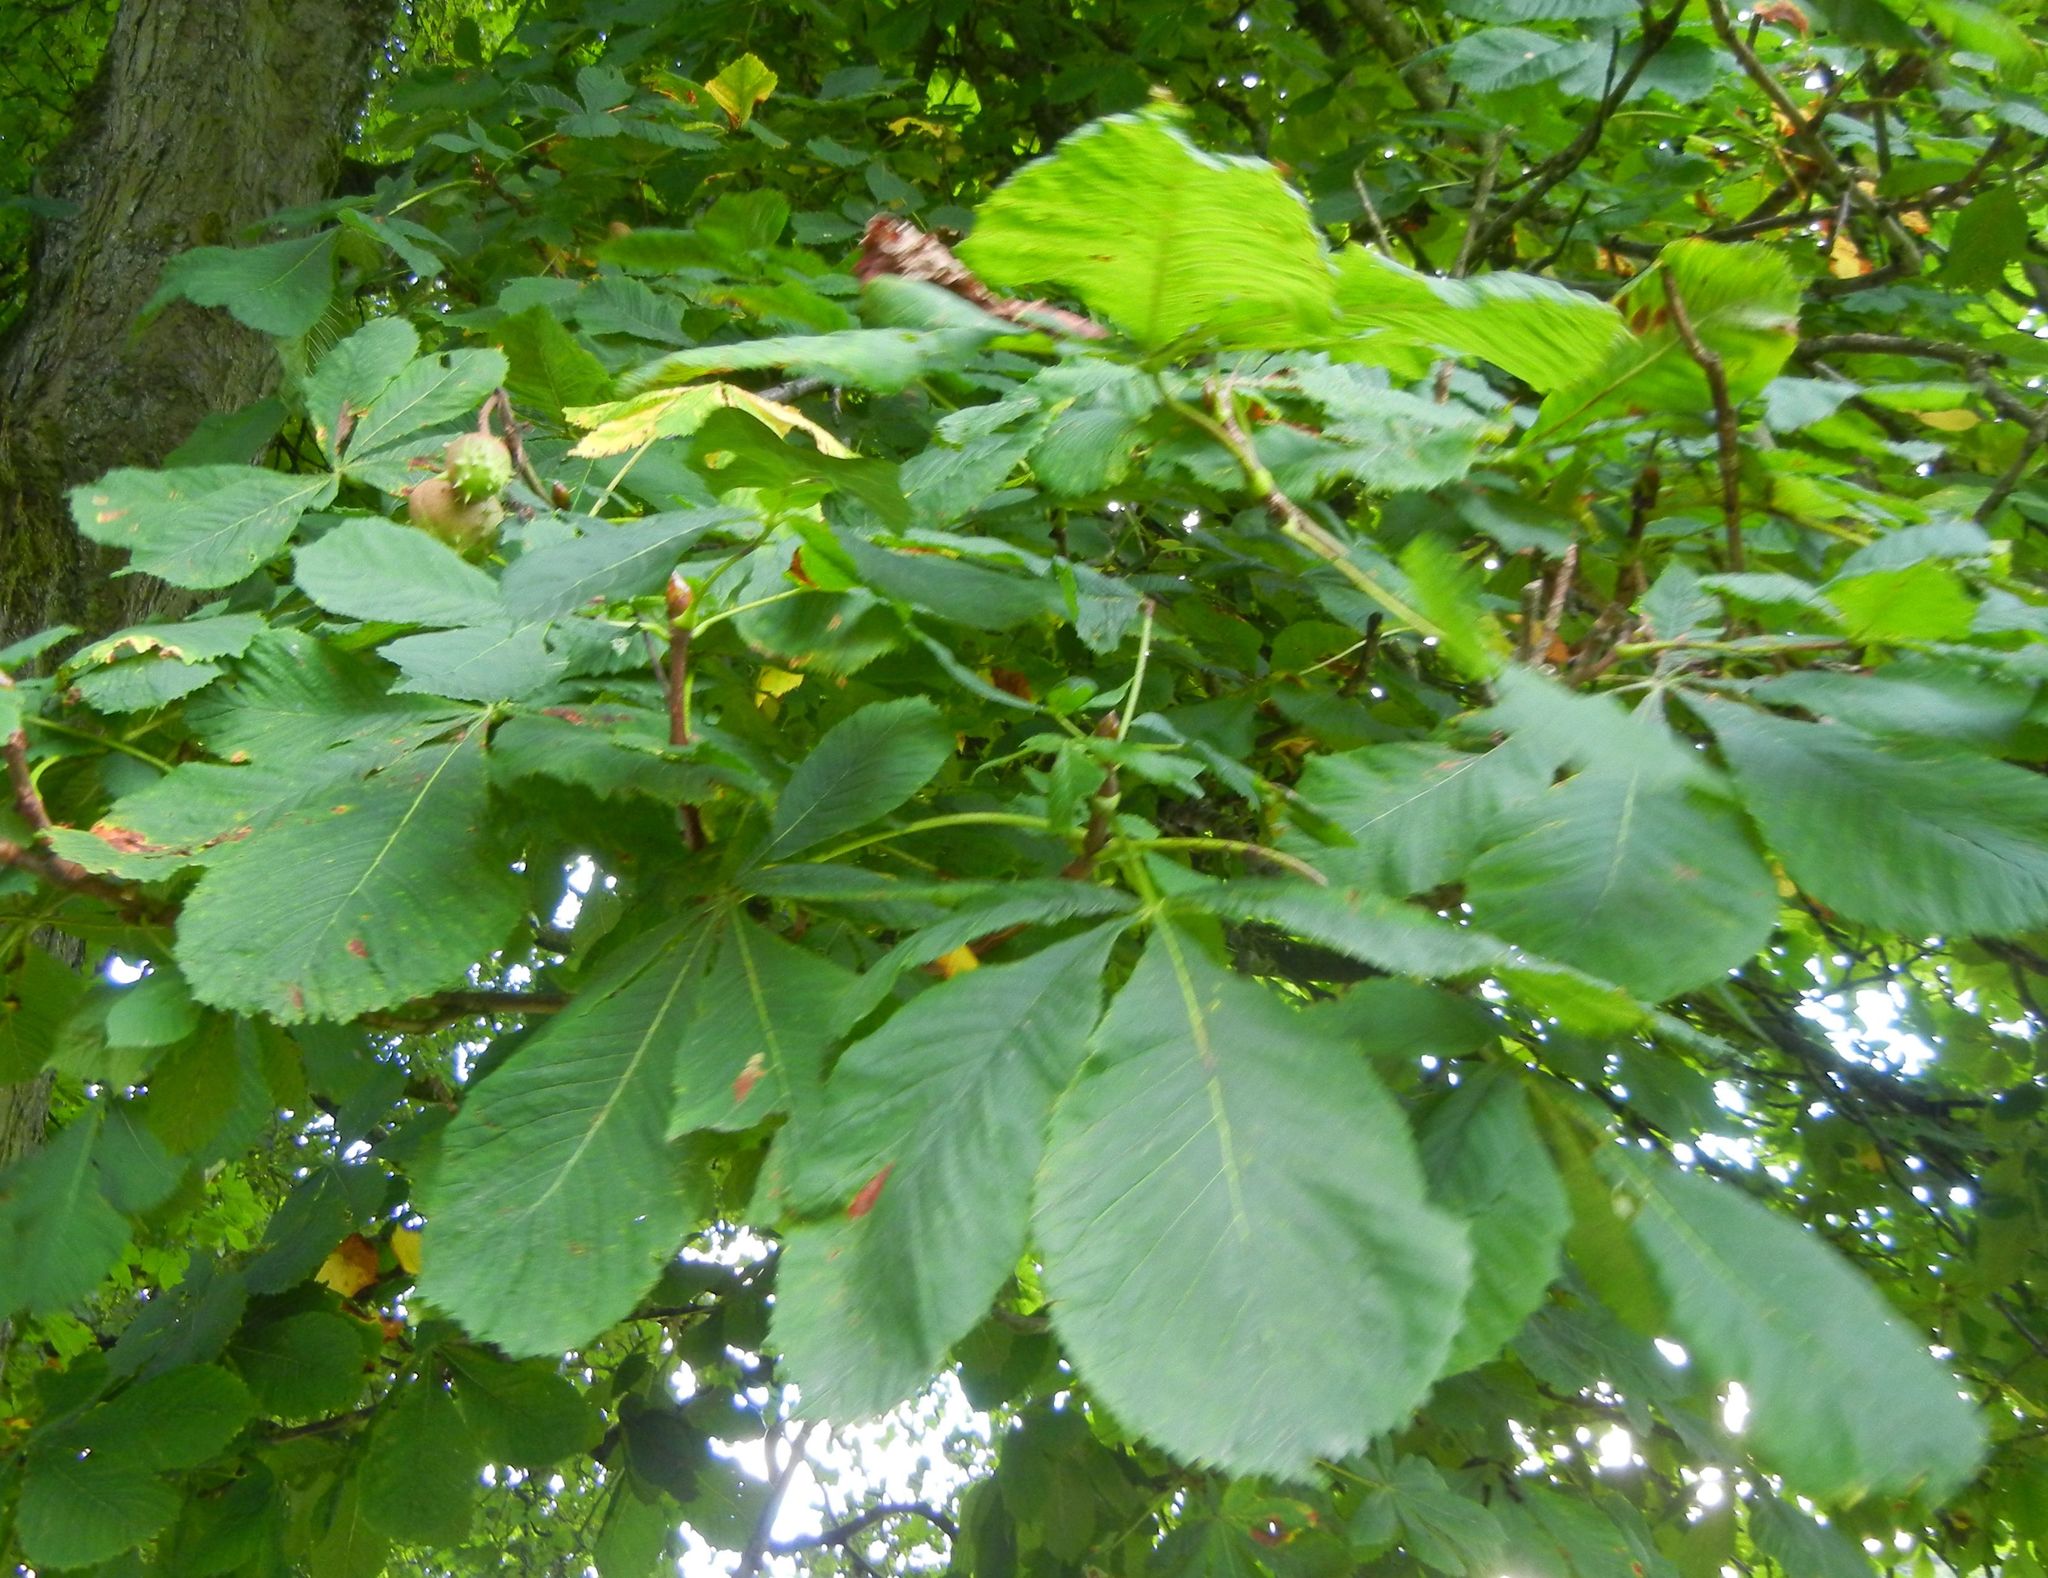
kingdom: Plantae
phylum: Tracheophyta
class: Magnoliopsida
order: Sapindales
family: Sapindaceae
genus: Aesculus
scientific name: Aesculus hippocastanum
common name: Horse-chestnut
